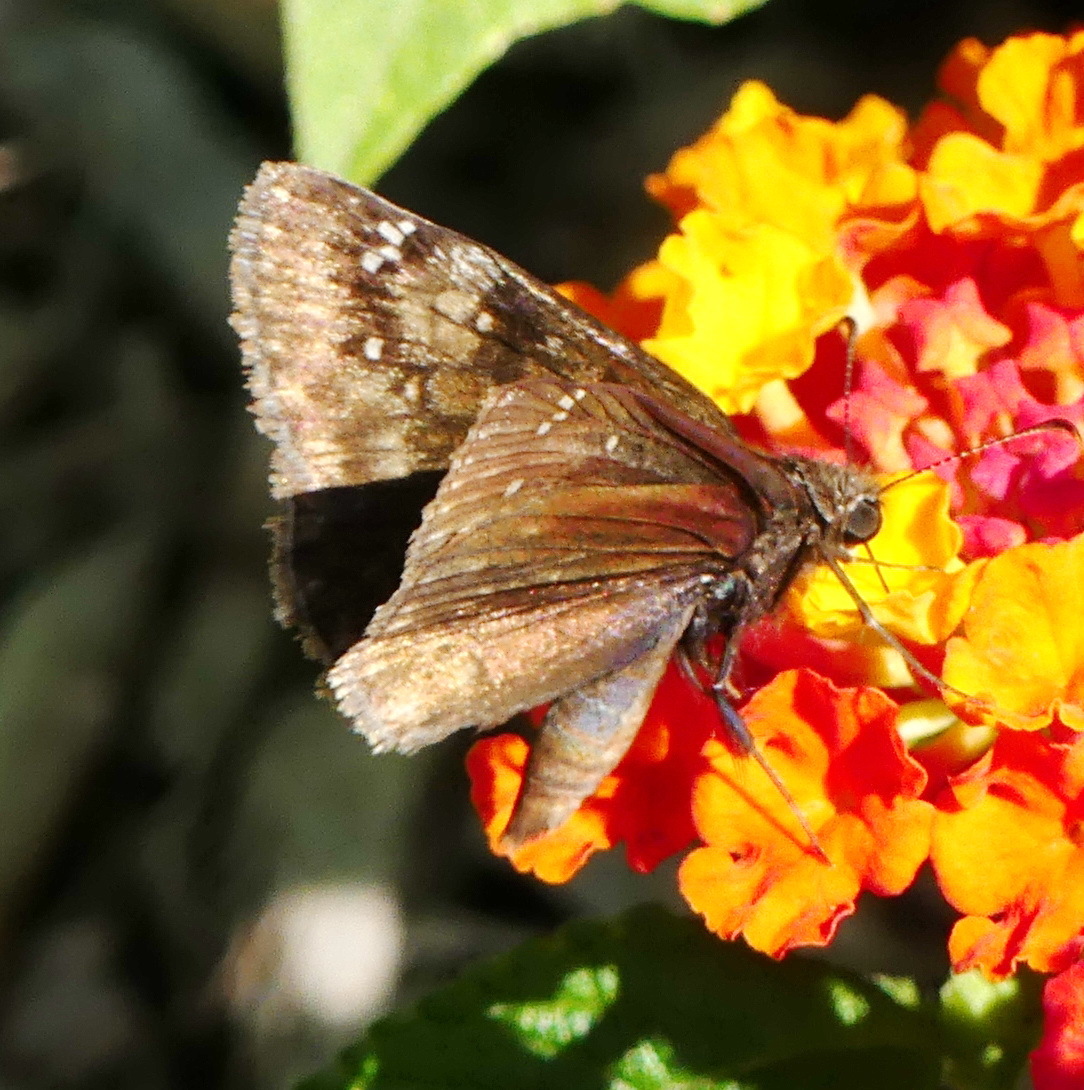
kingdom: Animalia
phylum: Arthropoda
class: Insecta
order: Lepidoptera
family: Hesperiidae
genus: Erynnis
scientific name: Erynnis baptisiae
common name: Wild indigo duskywing
